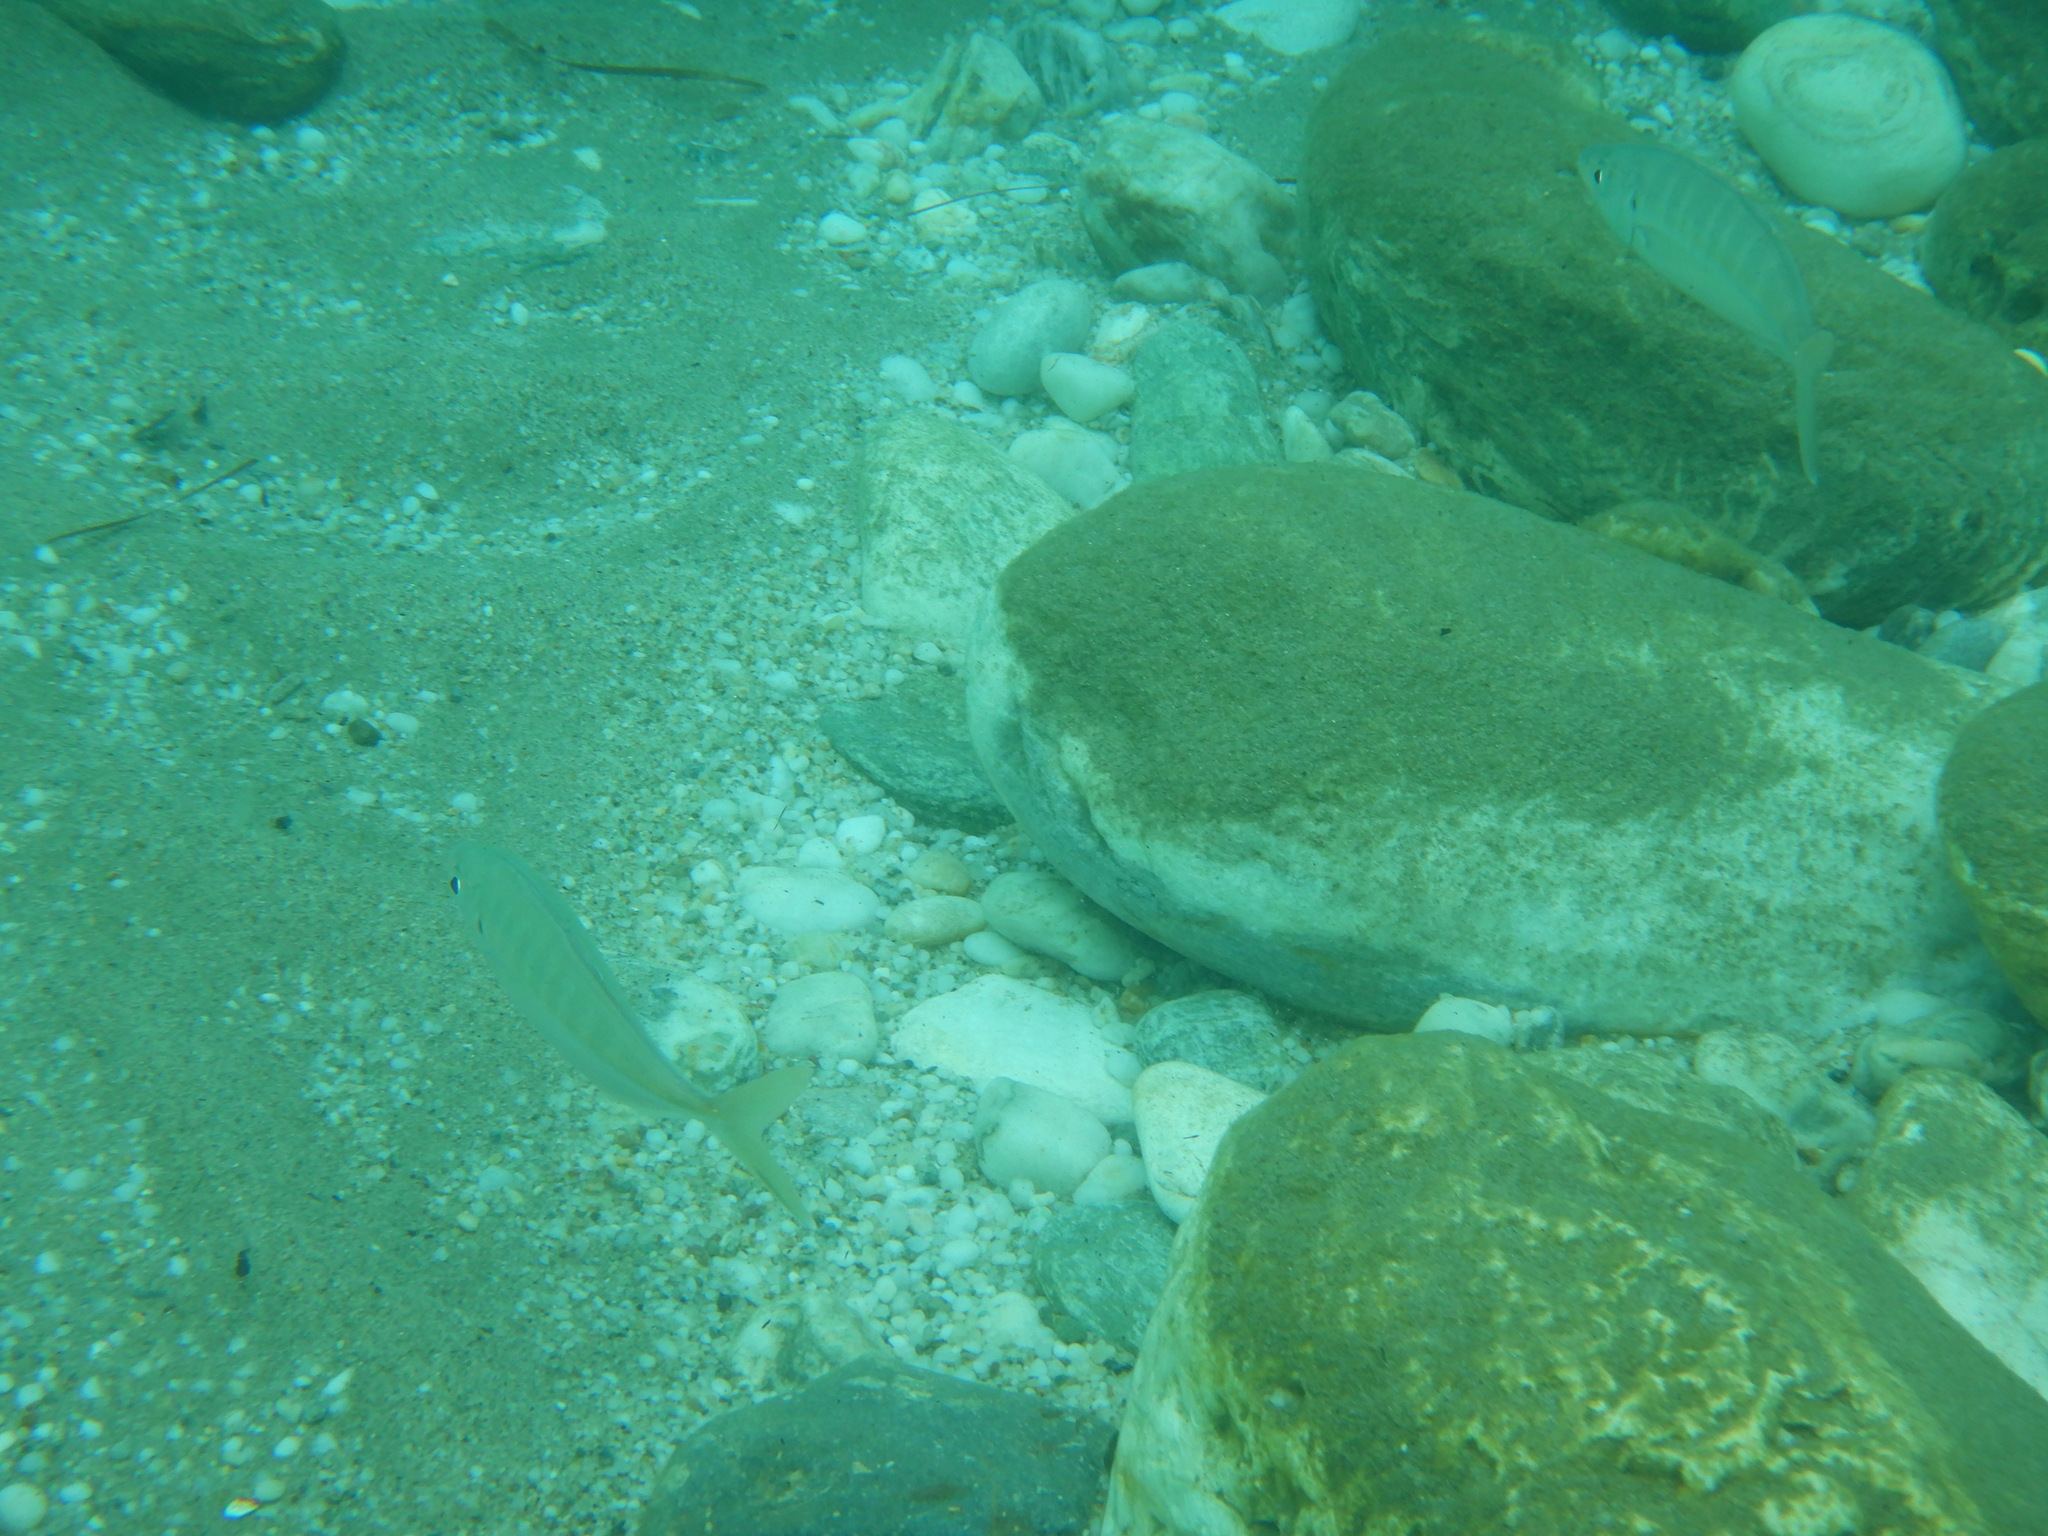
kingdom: Animalia
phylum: Chordata
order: Perciformes
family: Carangidae
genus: Caranx
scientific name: Caranx rhonchus
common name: False scad
